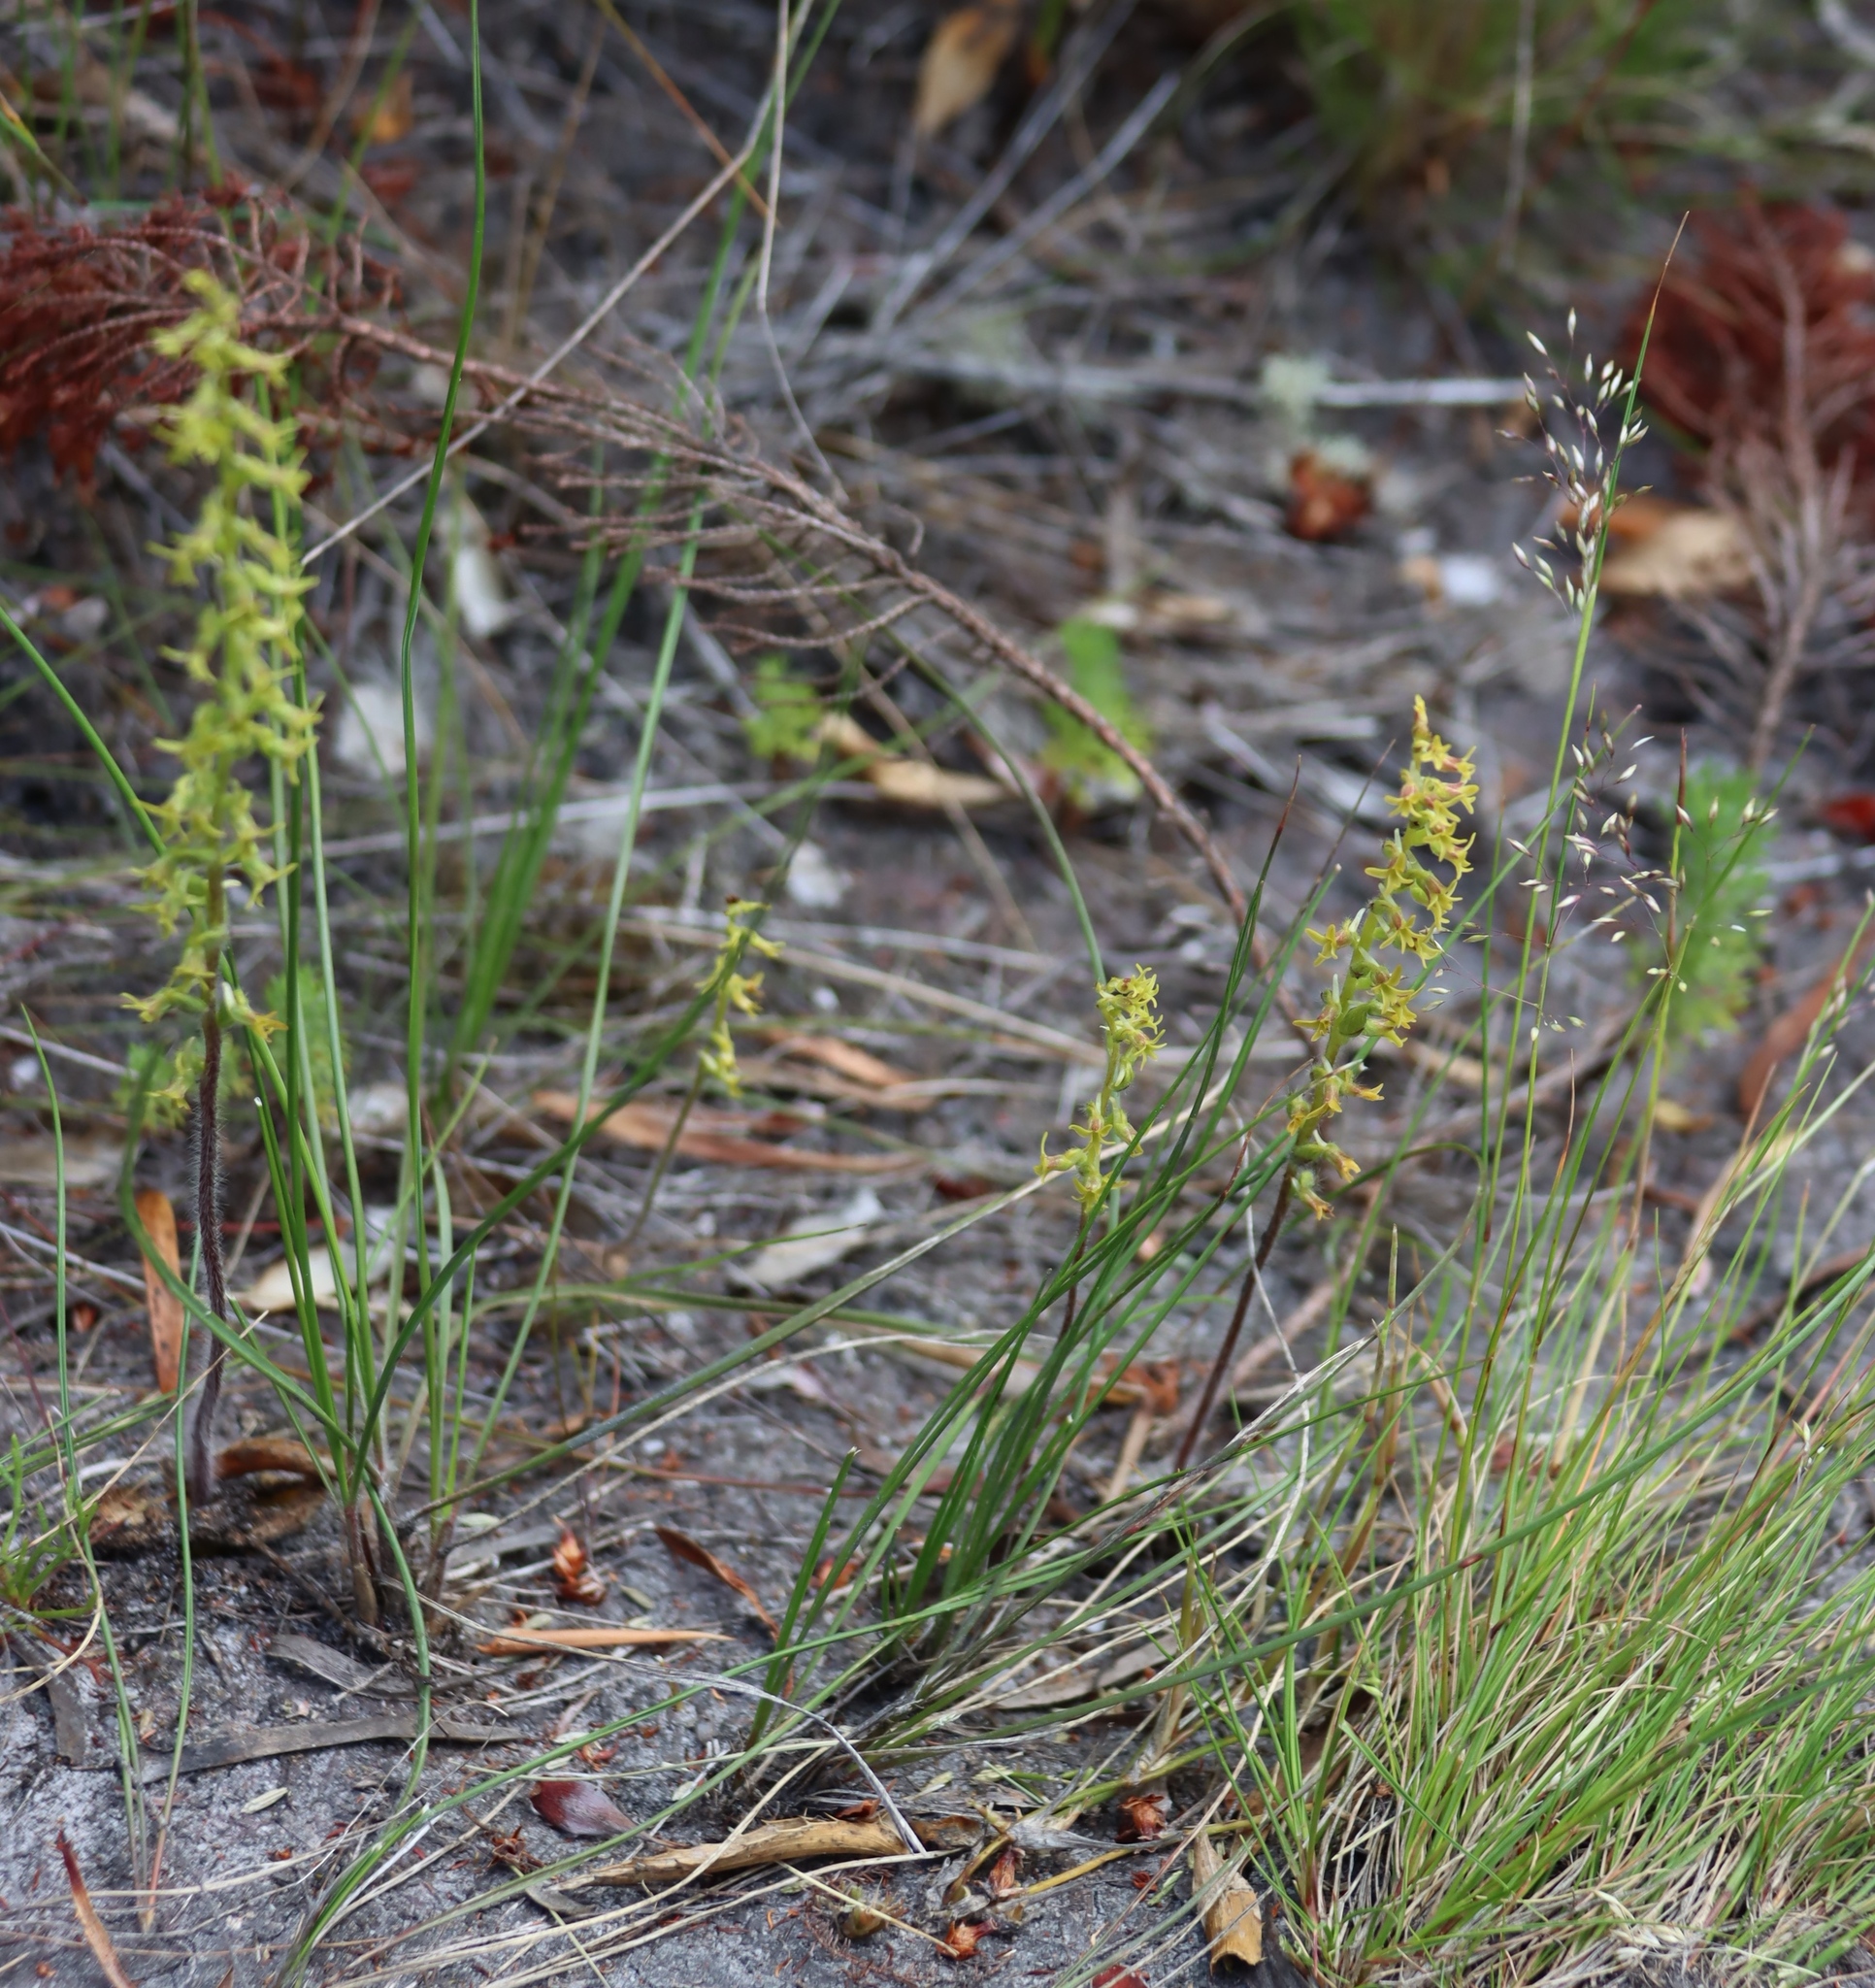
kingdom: Plantae
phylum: Tracheophyta
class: Liliopsida
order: Asparagales
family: Orchidaceae
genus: Holothrix
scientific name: Holothrix condensata
